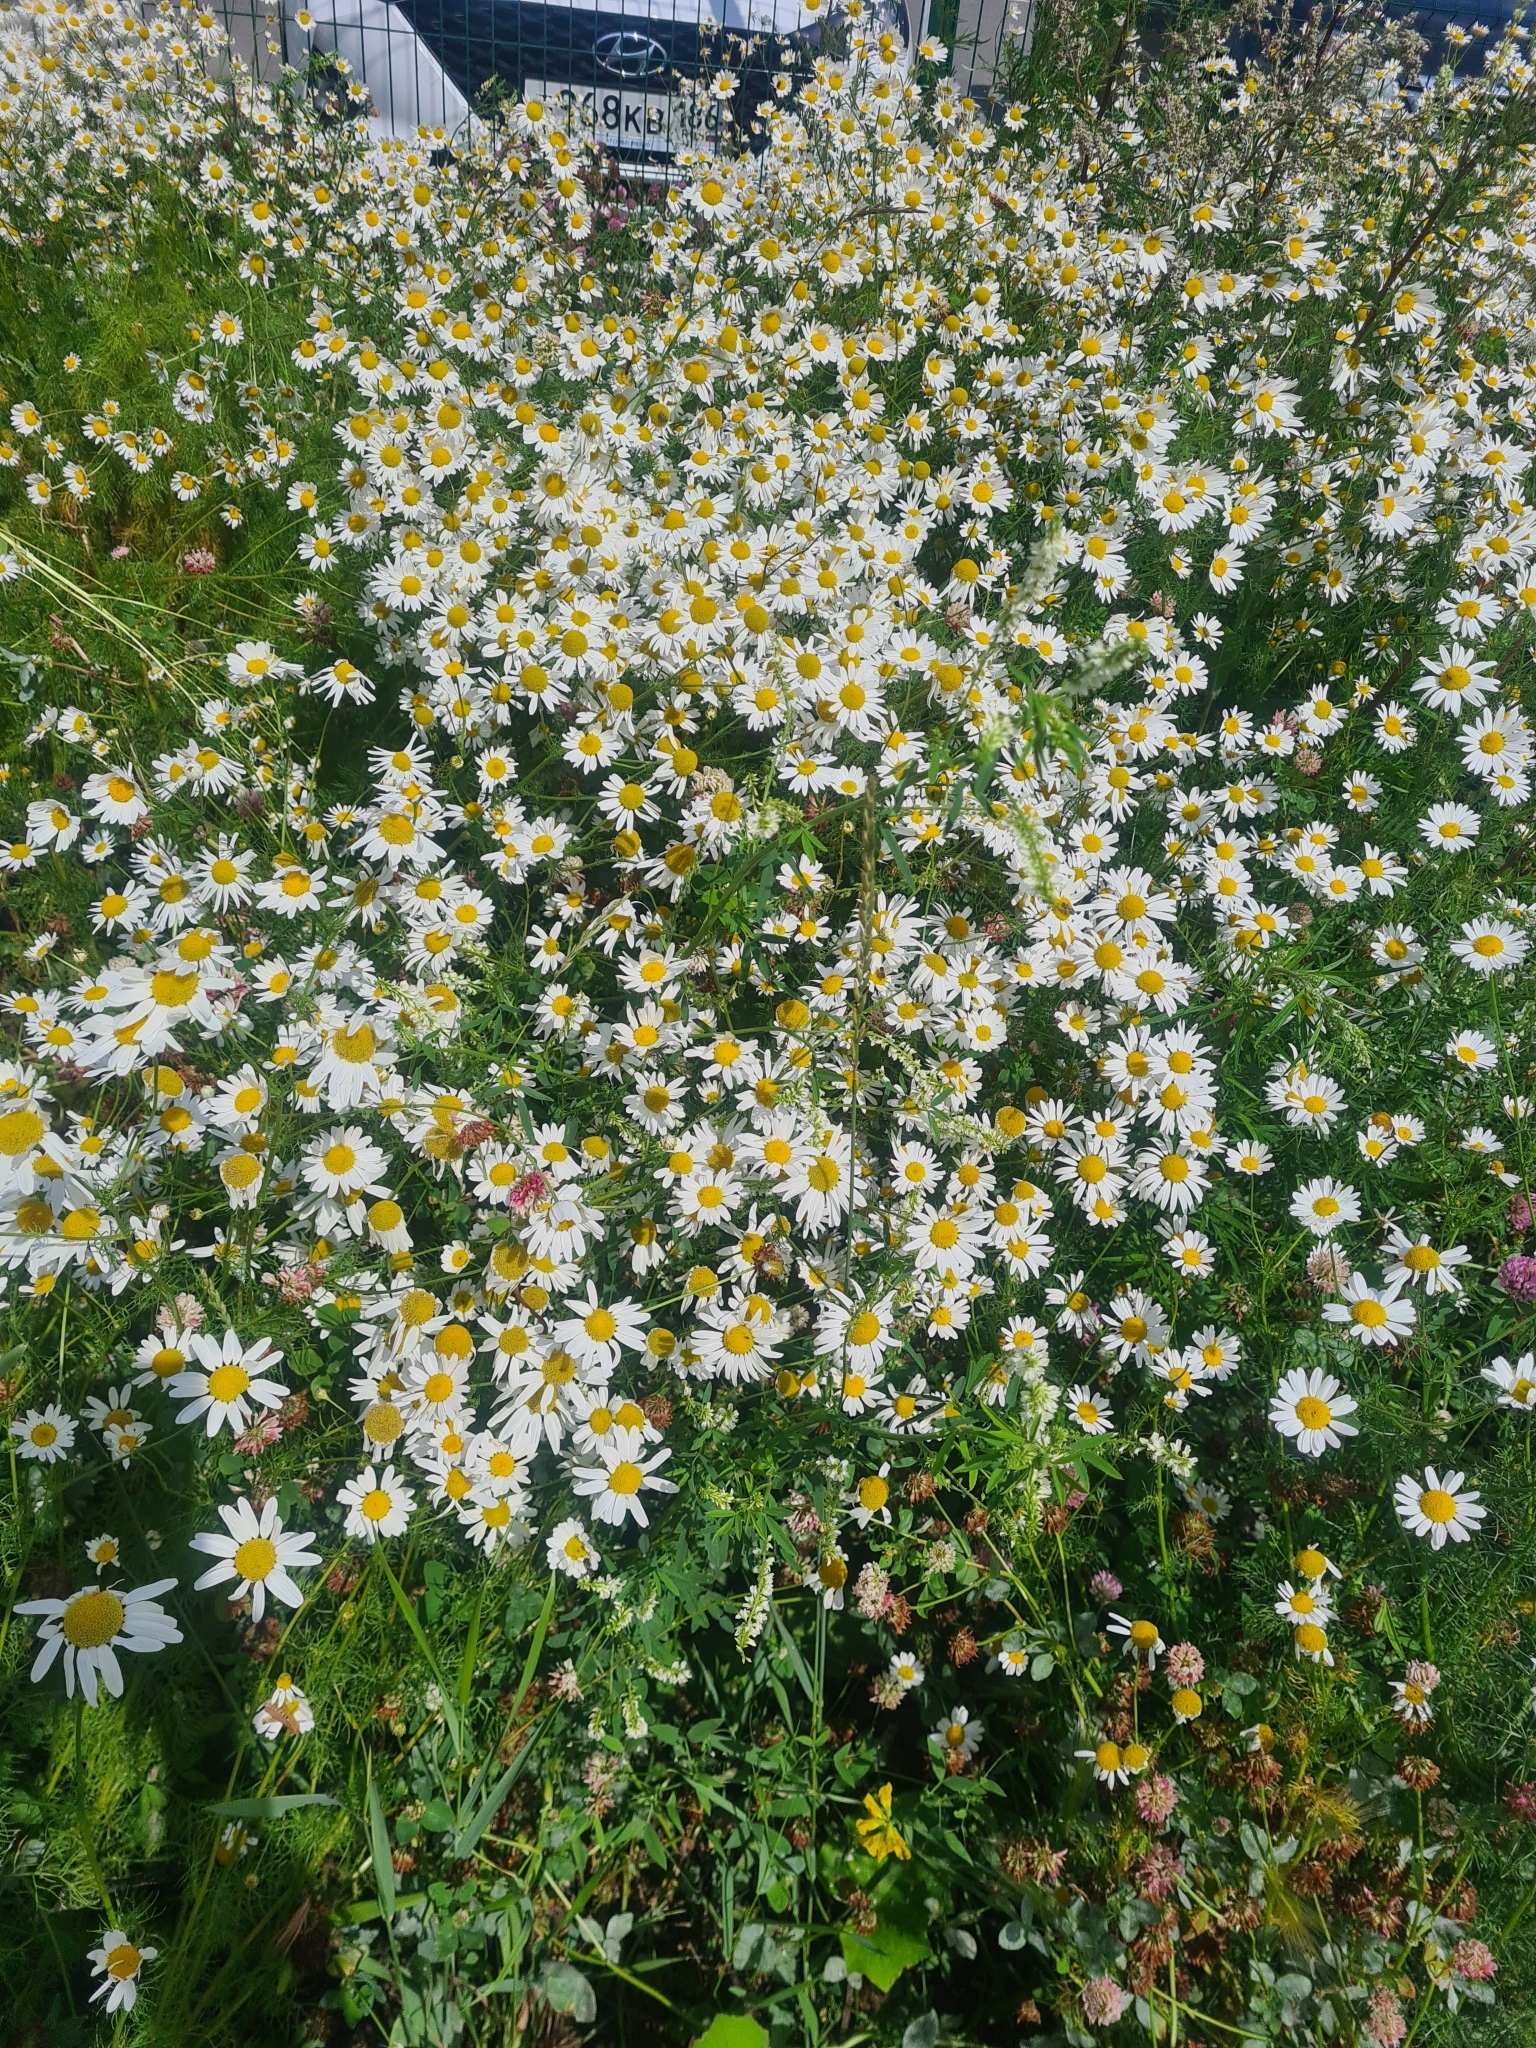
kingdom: Plantae
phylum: Tracheophyta
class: Magnoliopsida
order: Asterales
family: Asteraceae
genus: Tripleurospermum
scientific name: Tripleurospermum inodorum
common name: Scentless mayweed
